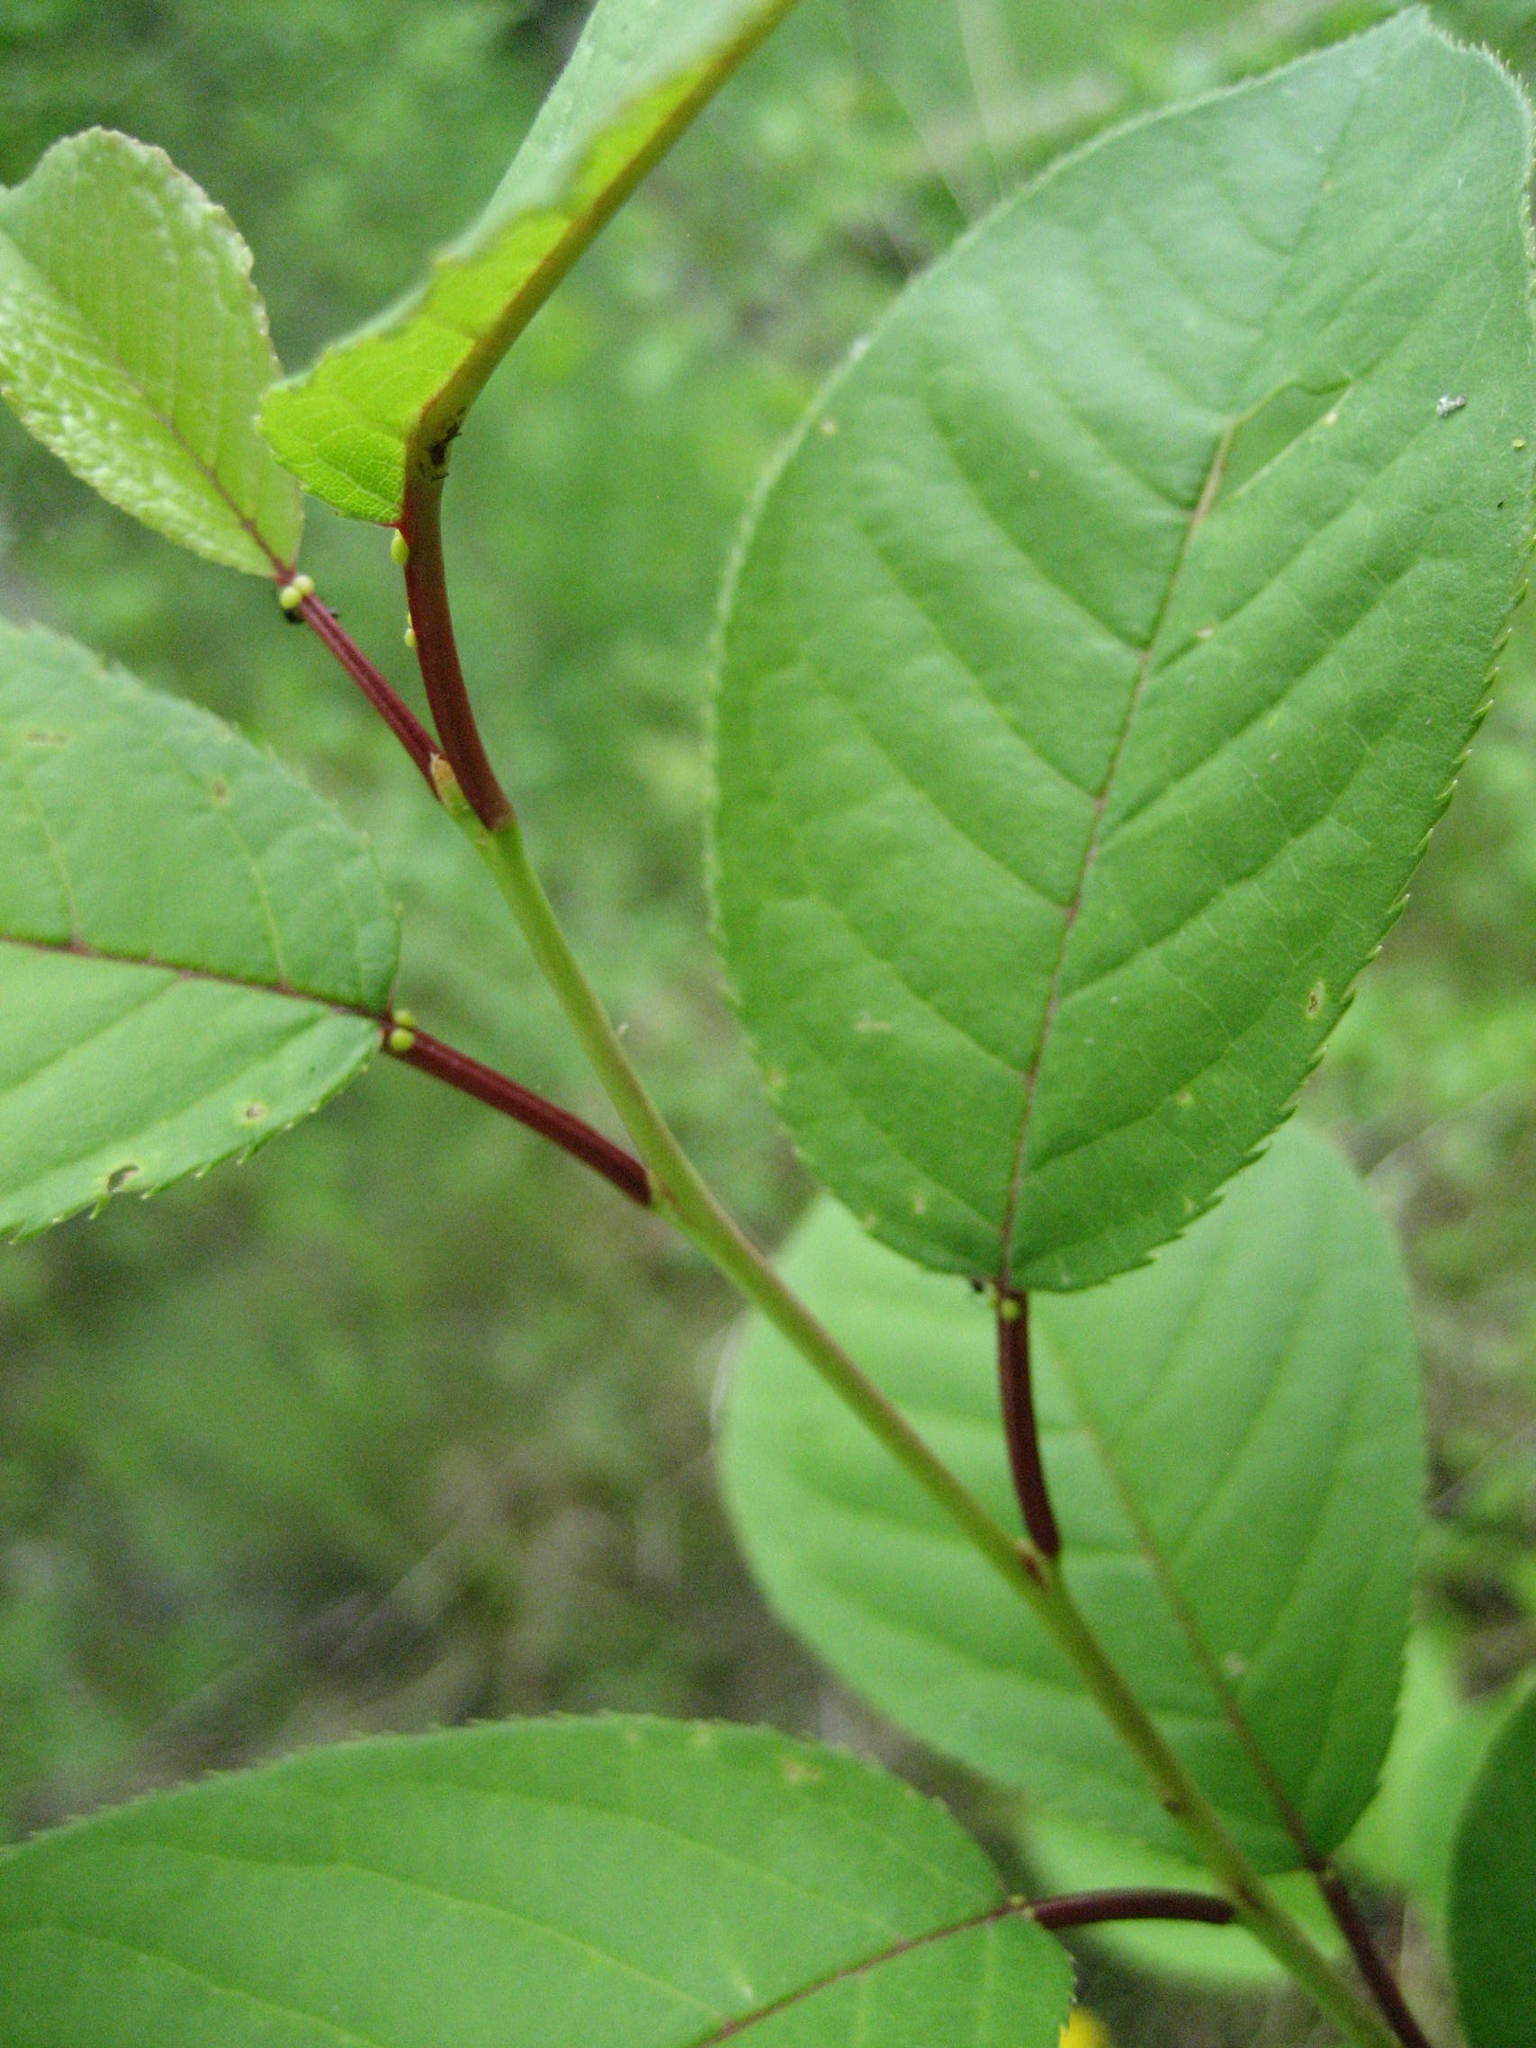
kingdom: Plantae
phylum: Tracheophyta
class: Magnoliopsida
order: Rosales
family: Rosaceae
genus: Prunus
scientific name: Prunus virginiana
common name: Chokecherry
